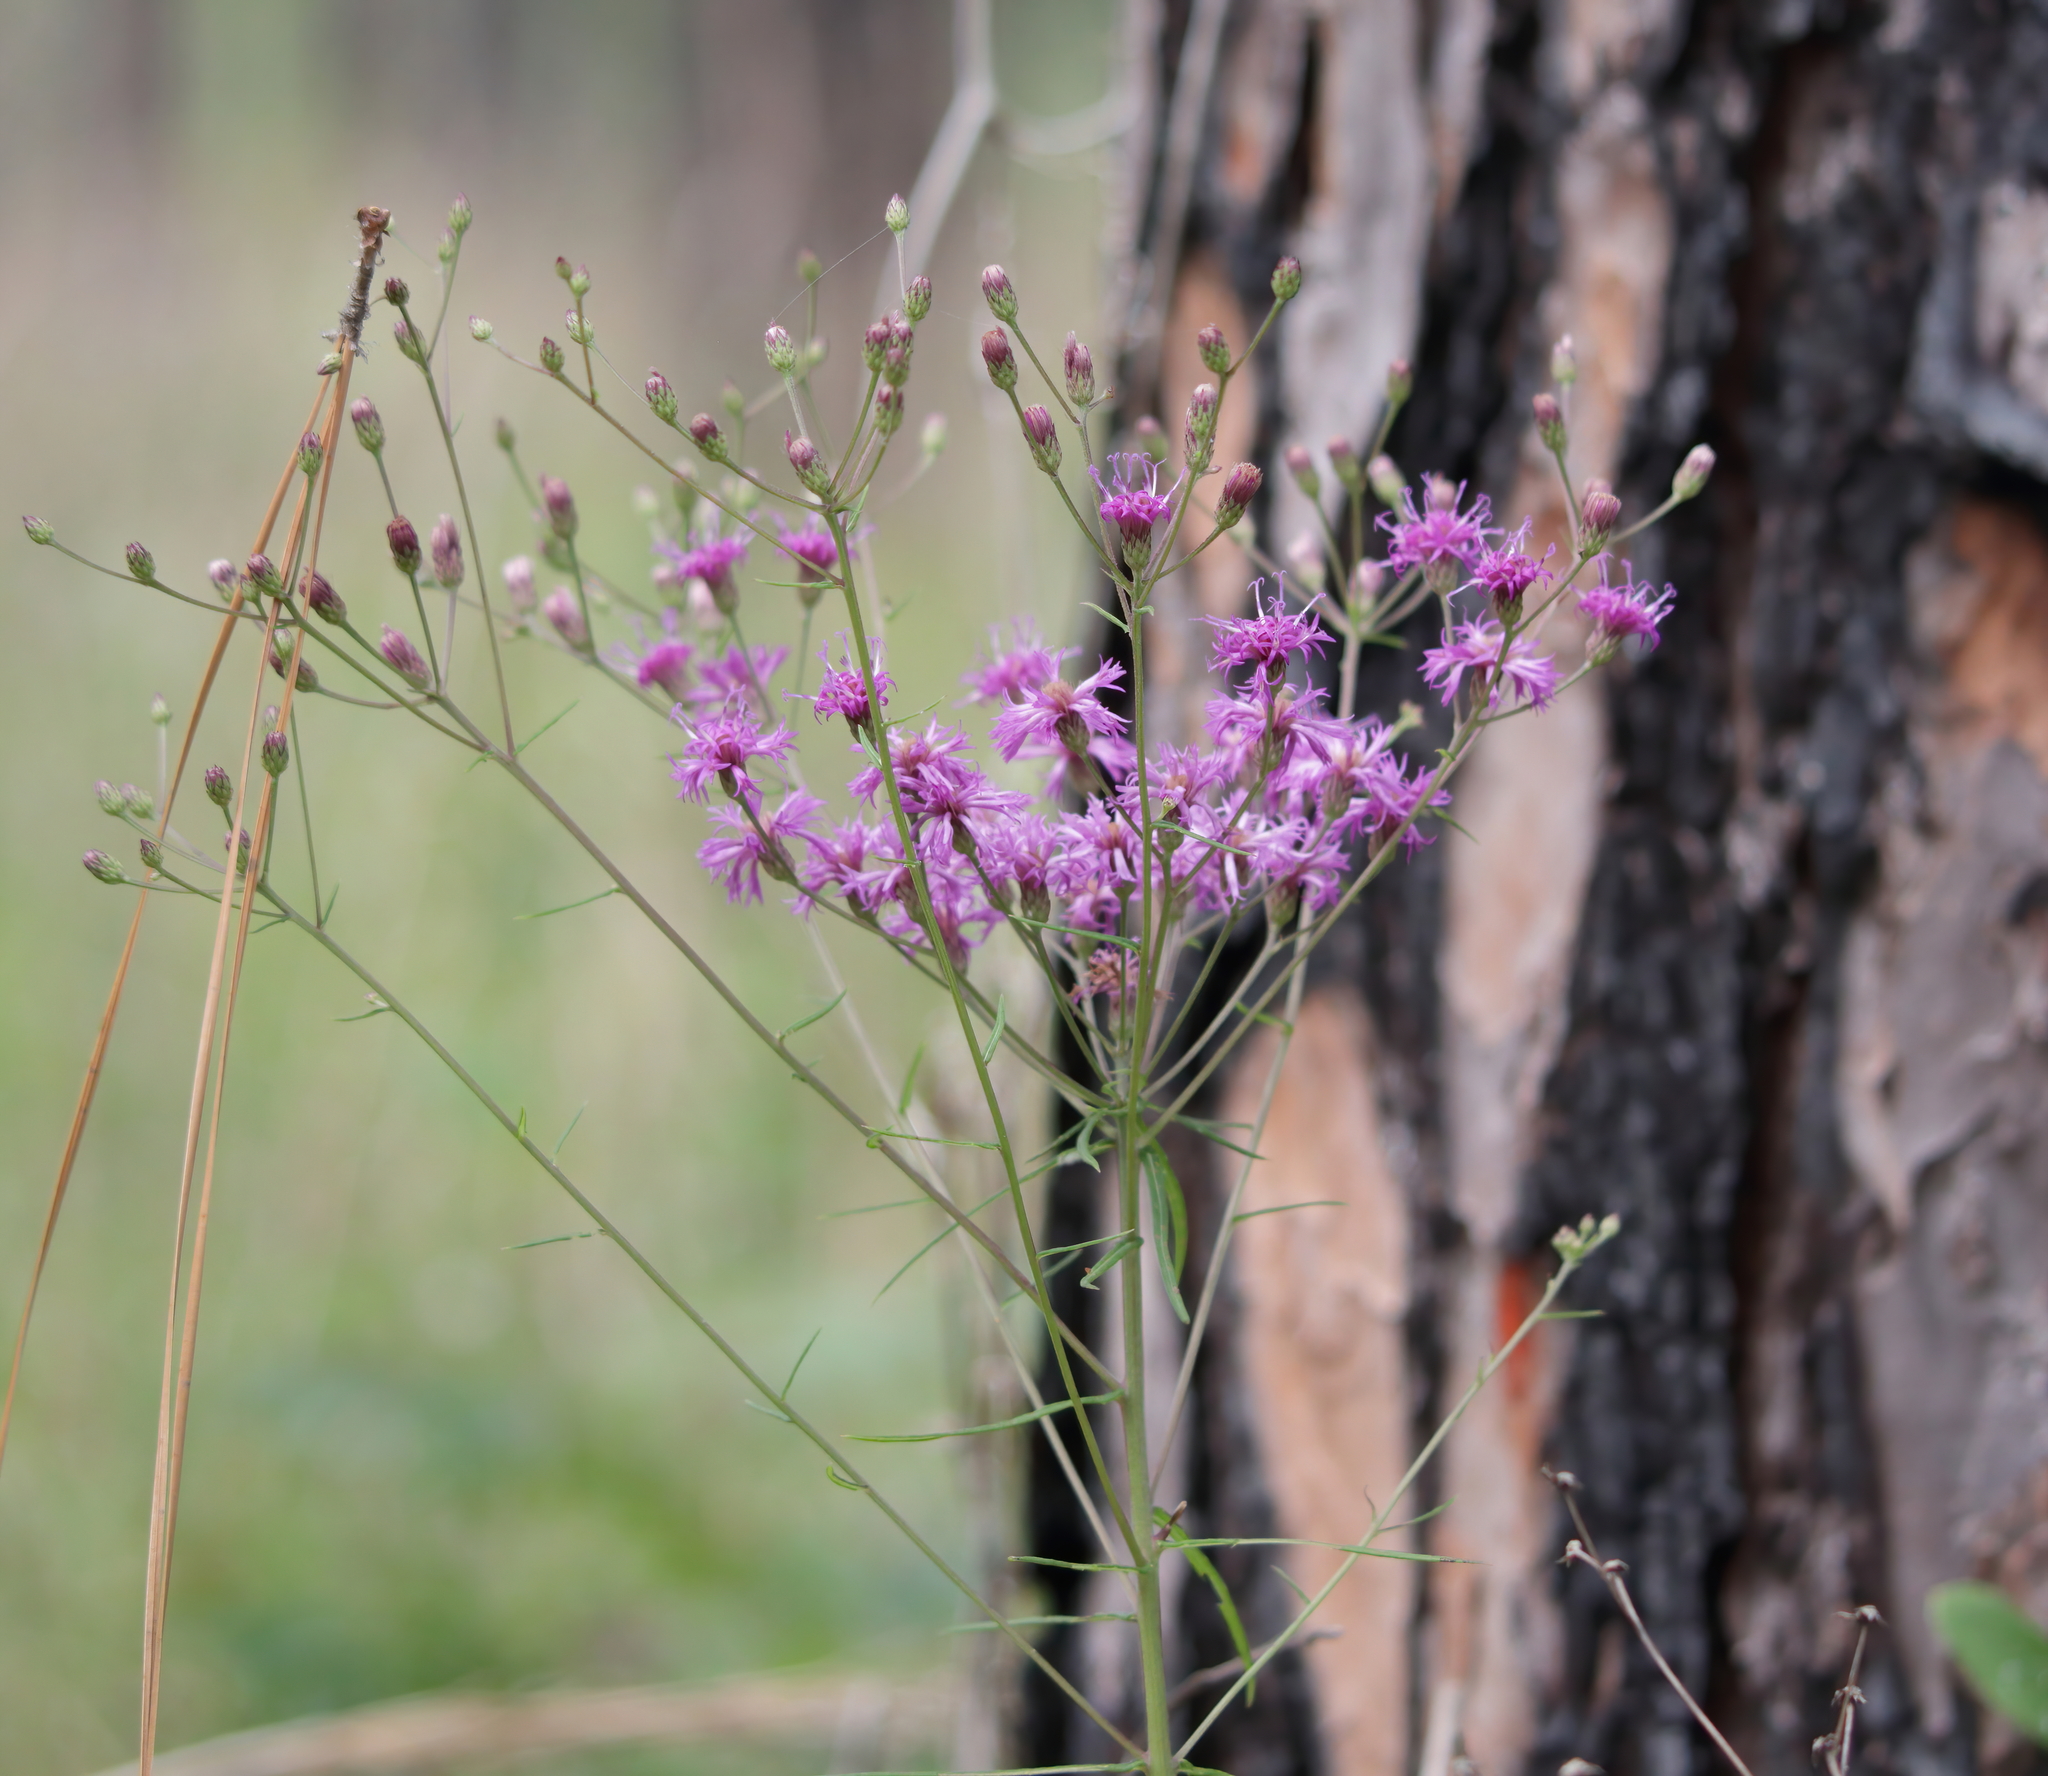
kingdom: Plantae
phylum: Tracheophyta
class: Magnoliopsida
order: Asterales
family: Asteraceae
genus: Vernonia
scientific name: Vernonia angustifolia
